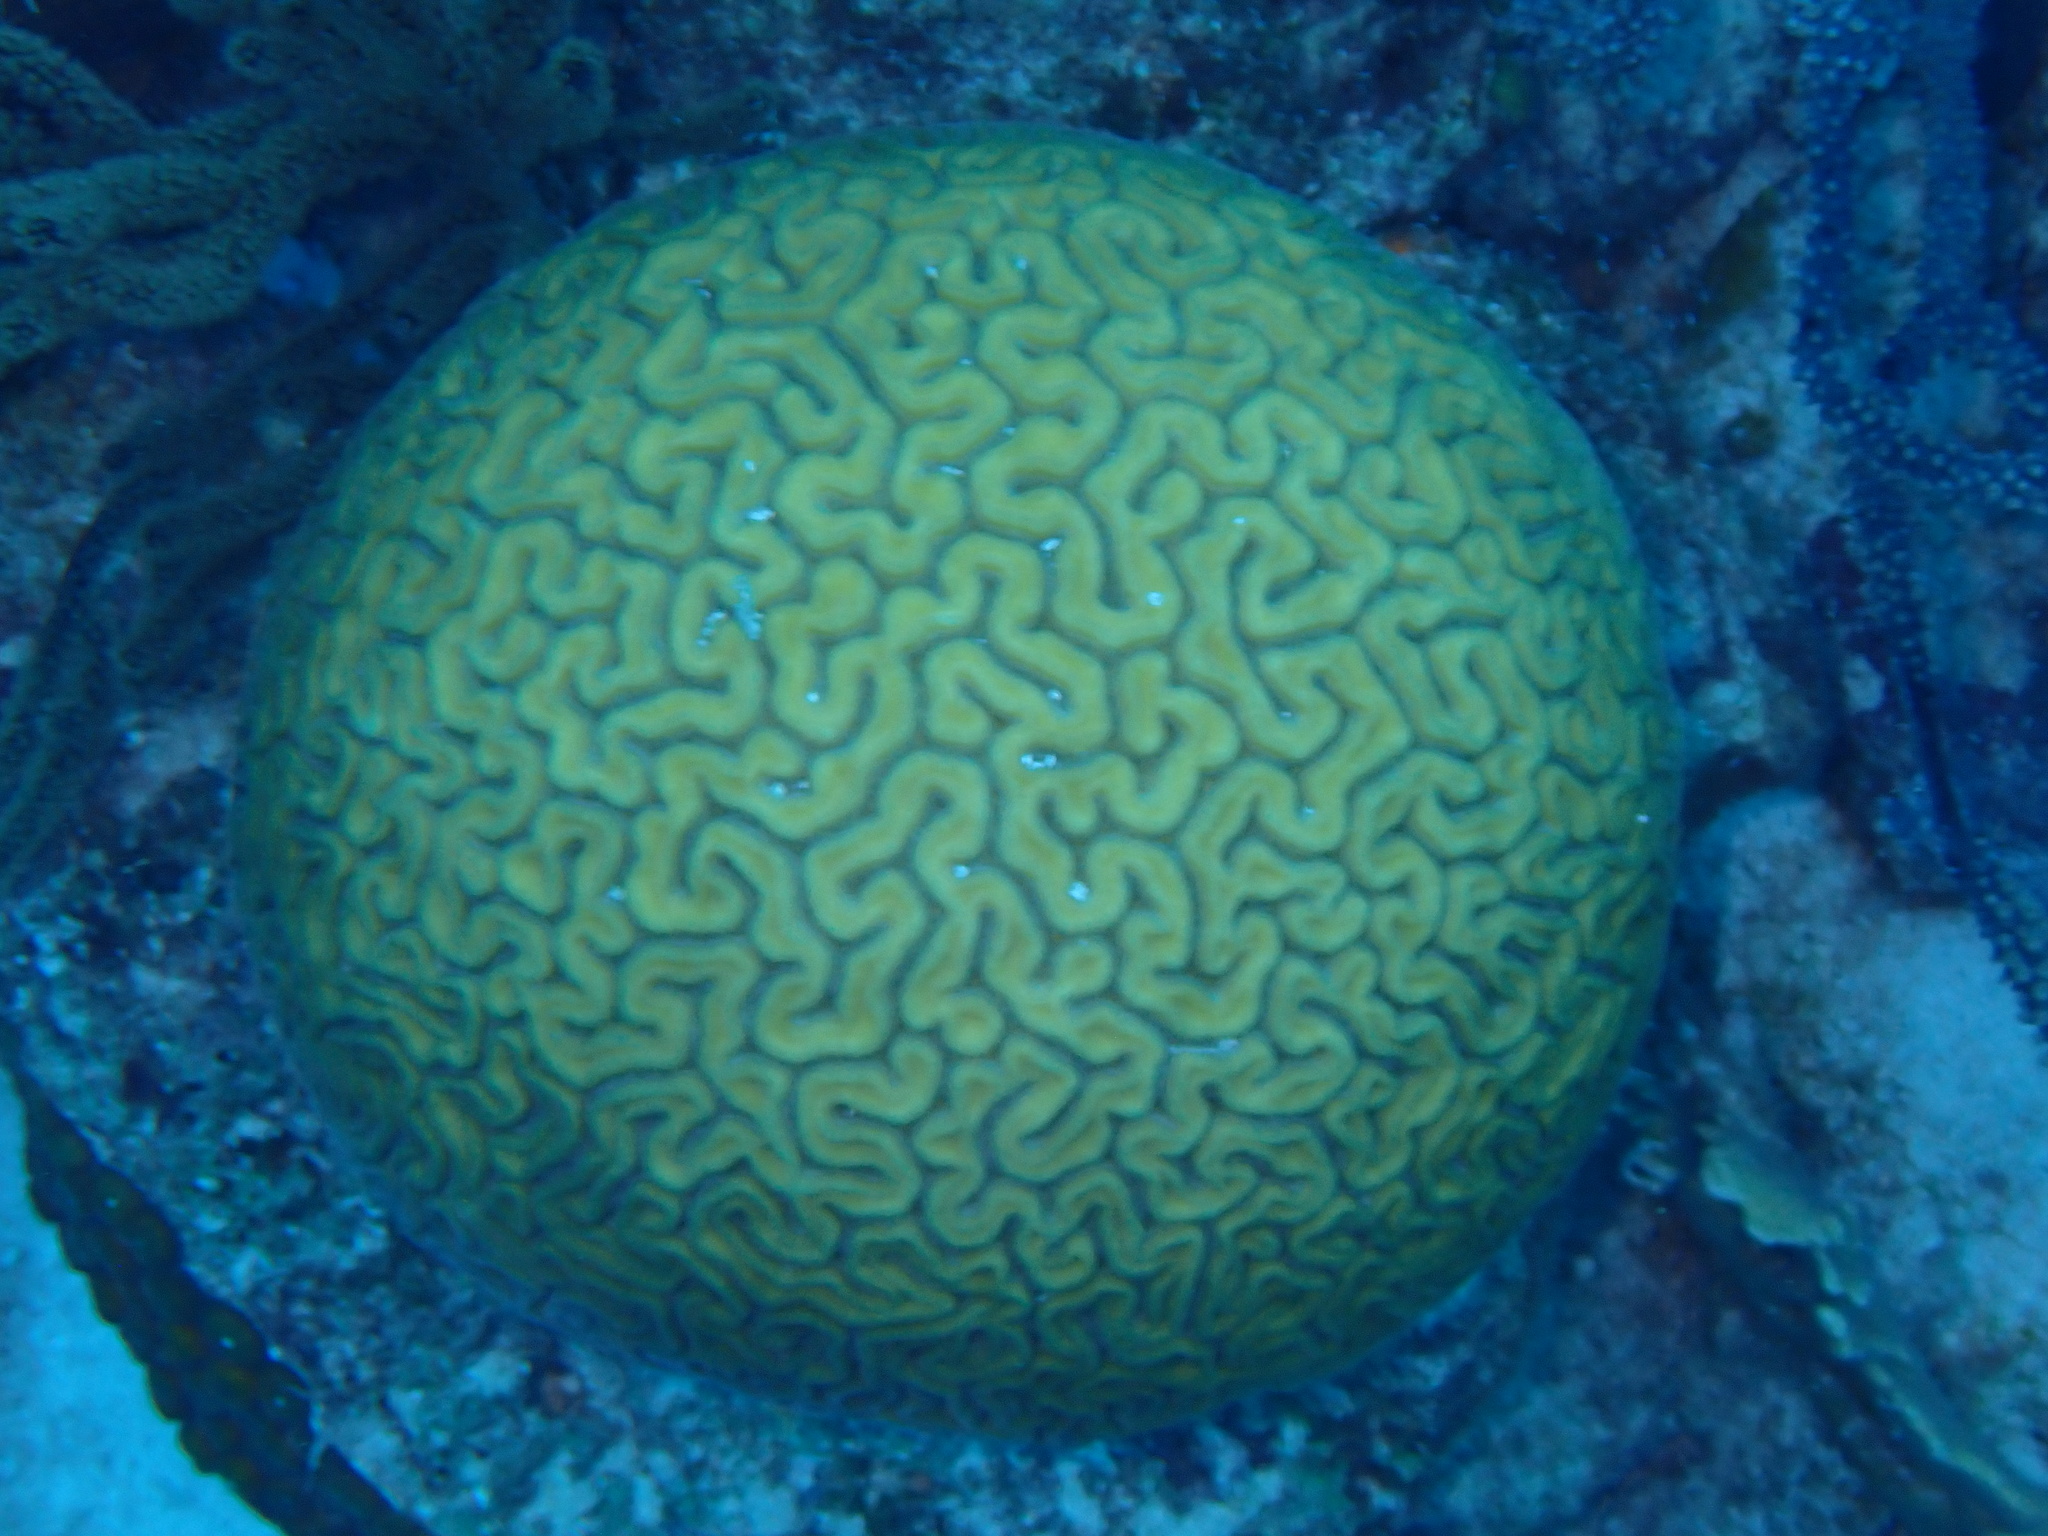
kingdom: Animalia
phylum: Cnidaria
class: Anthozoa
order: Scleractinia
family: Faviidae
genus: Diploria
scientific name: Diploria labyrinthiformis
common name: Grooved brain coral
